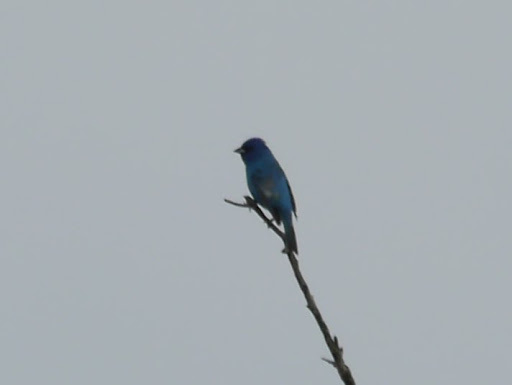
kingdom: Animalia
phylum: Chordata
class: Aves
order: Passeriformes
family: Cardinalidae
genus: Passerina
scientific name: Passerina cyanea
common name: Indigo bunting
